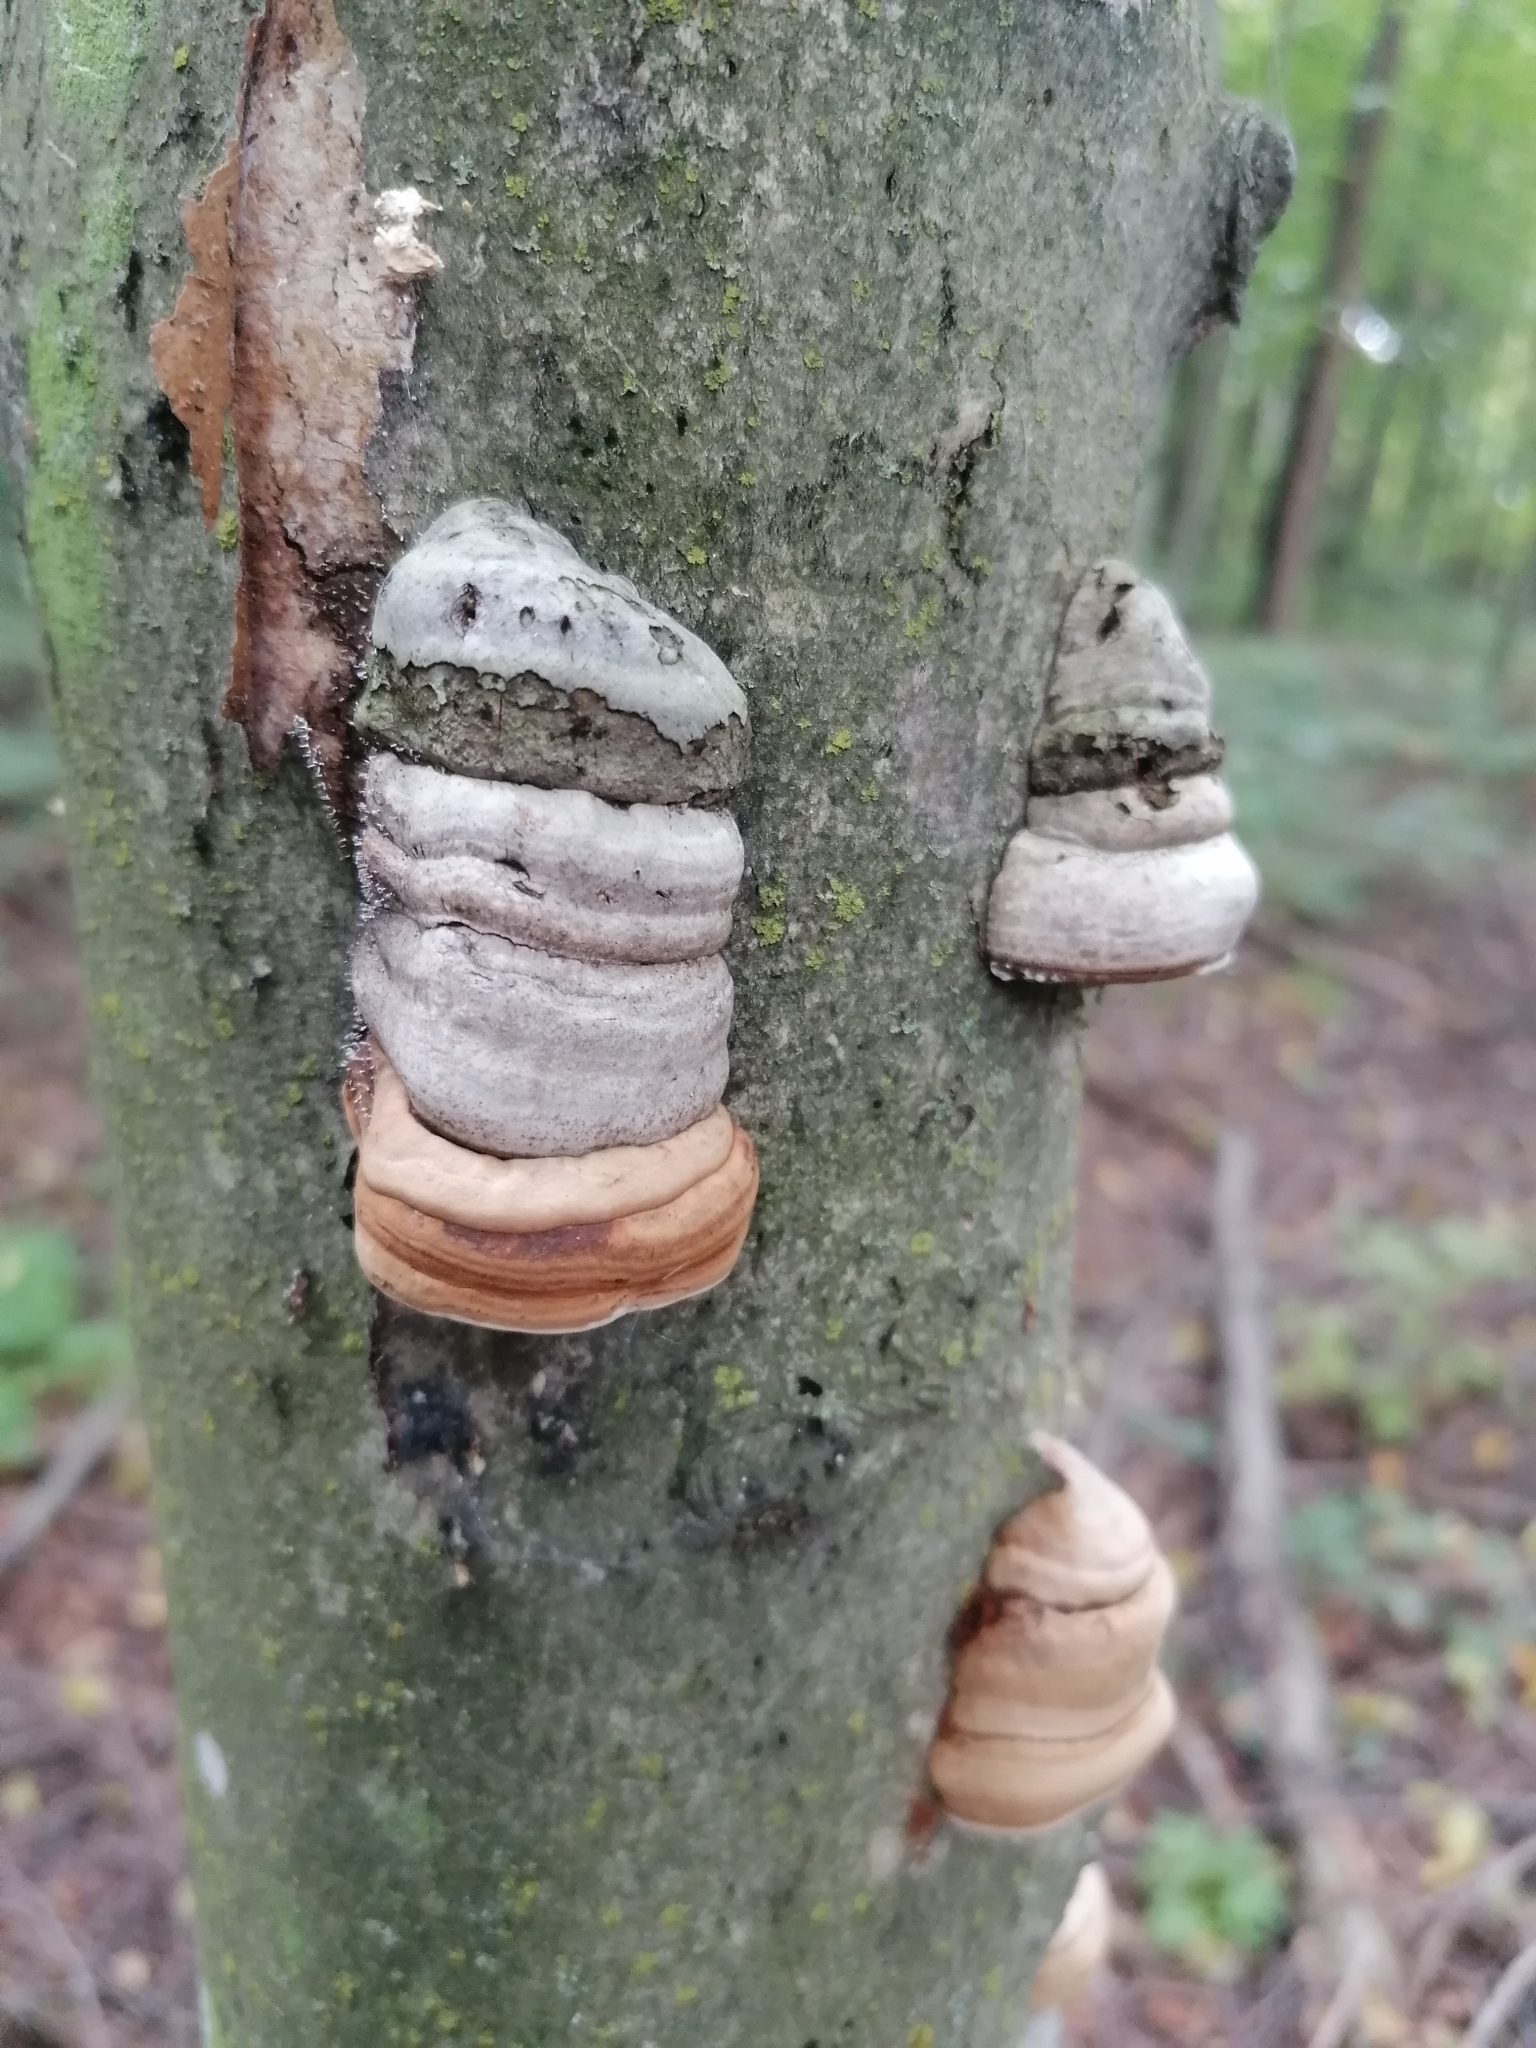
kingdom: Fungi
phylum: Basidiomycota
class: Agaricomycetes
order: Polyporales
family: Fomitopsidaceae
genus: Fomitopsis
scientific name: Fomitopsis officinalis
